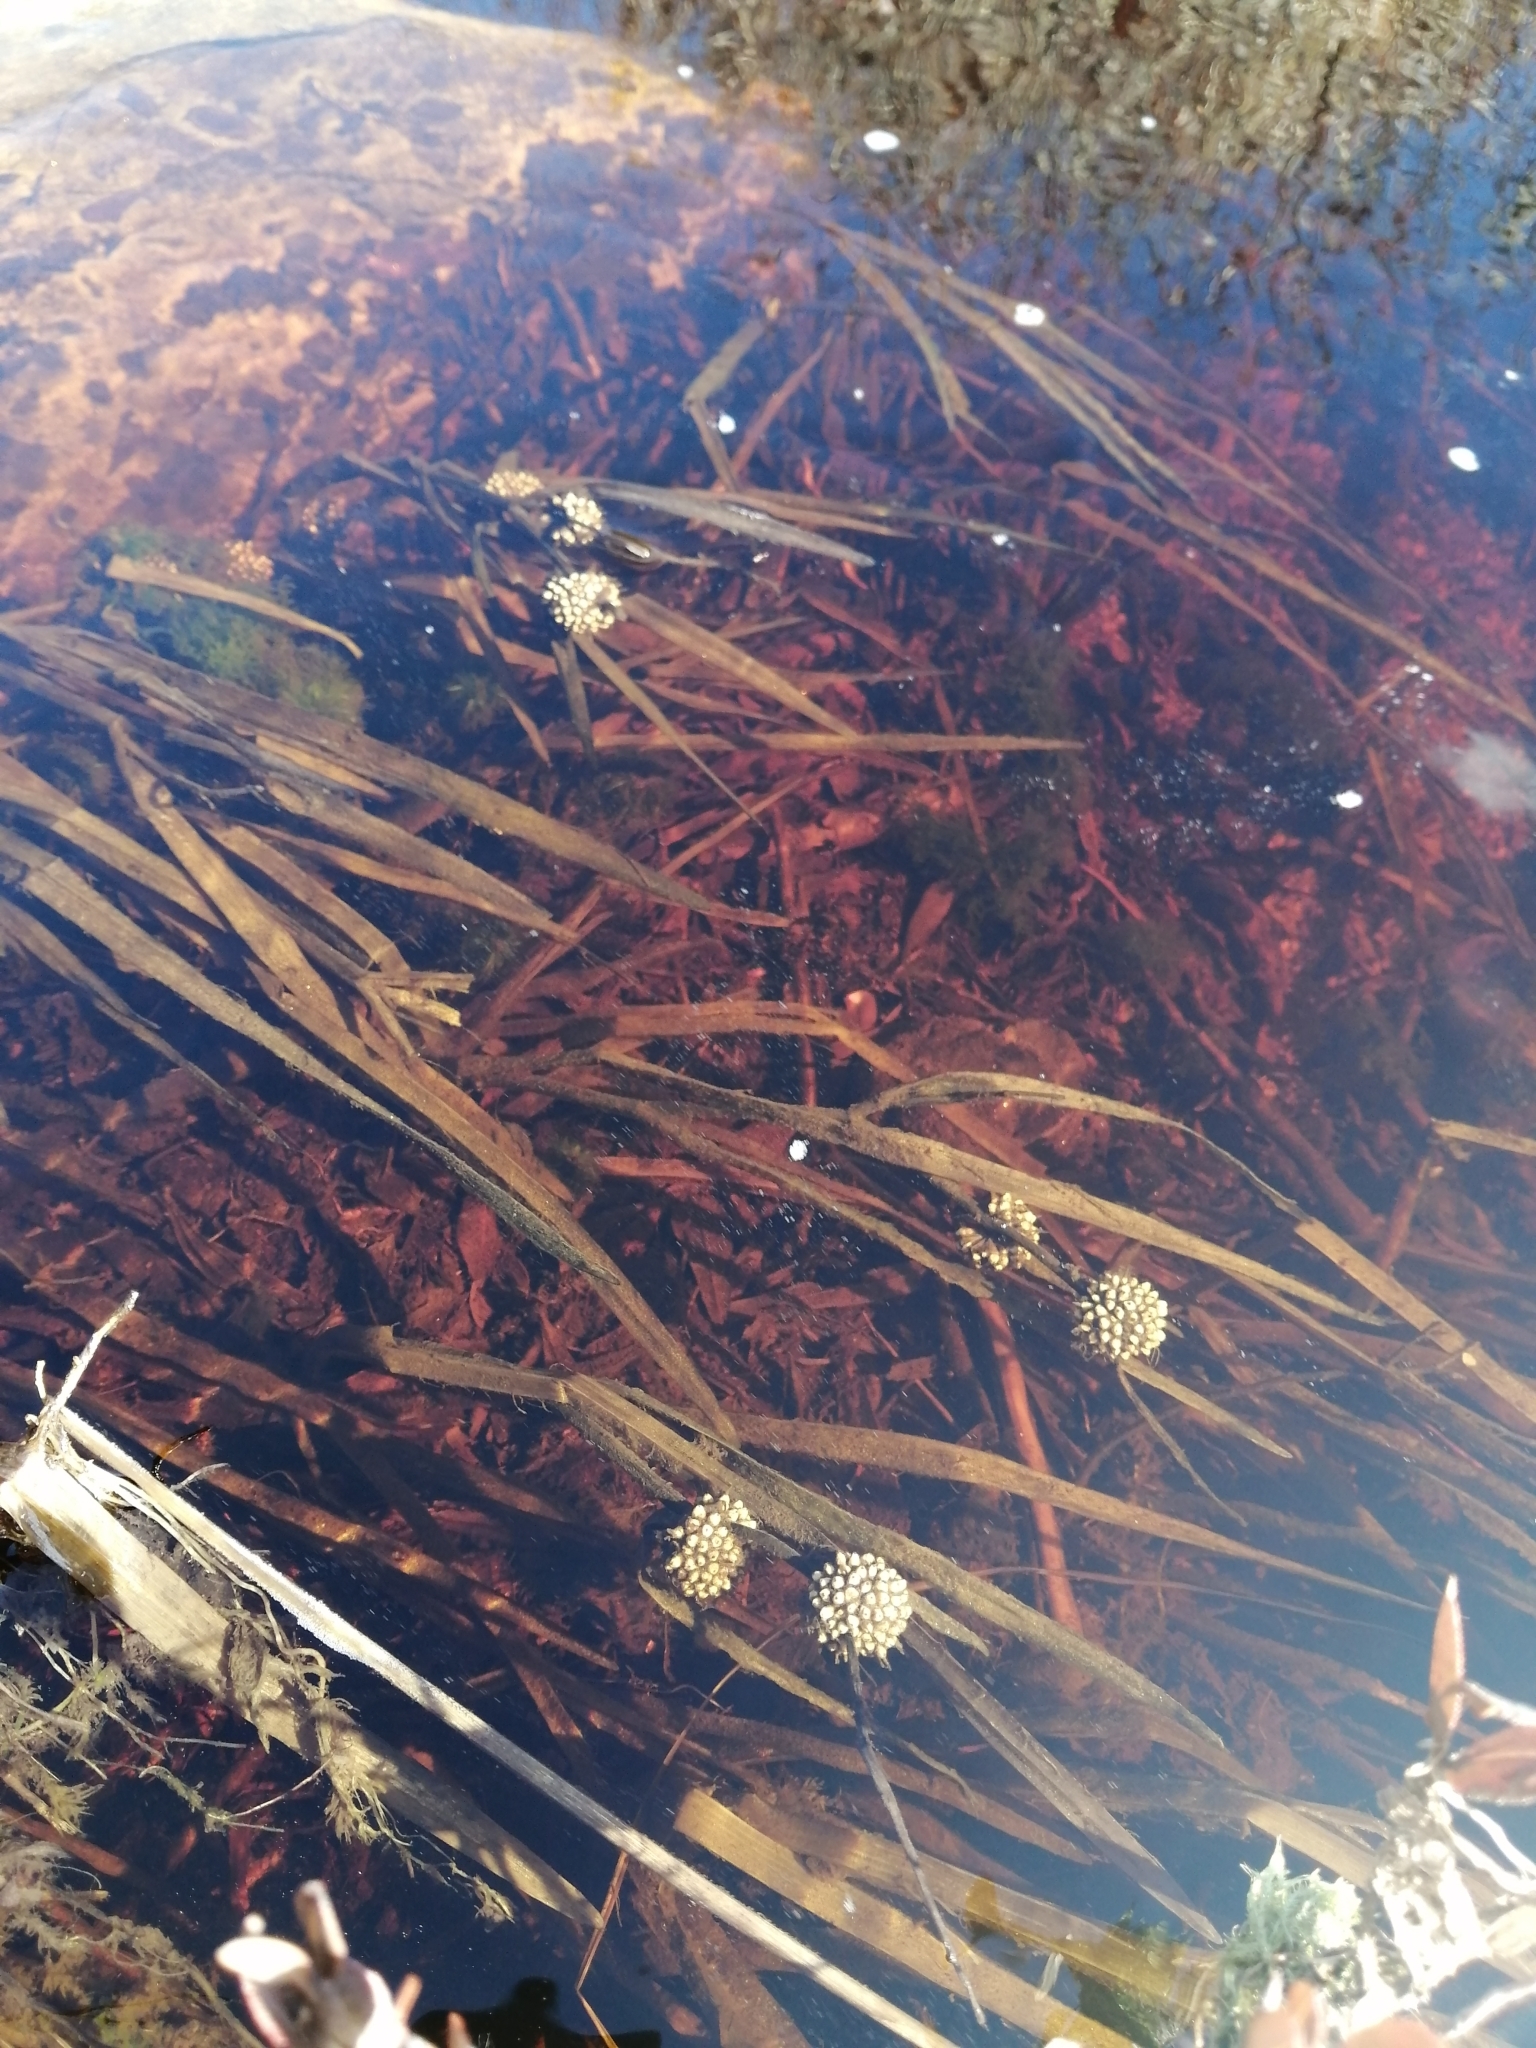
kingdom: Plantae
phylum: Tracheophyta
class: Liliopsida
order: Poales
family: Typhaceae
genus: Sparganium
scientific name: Sparganium americanum
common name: American burreed
